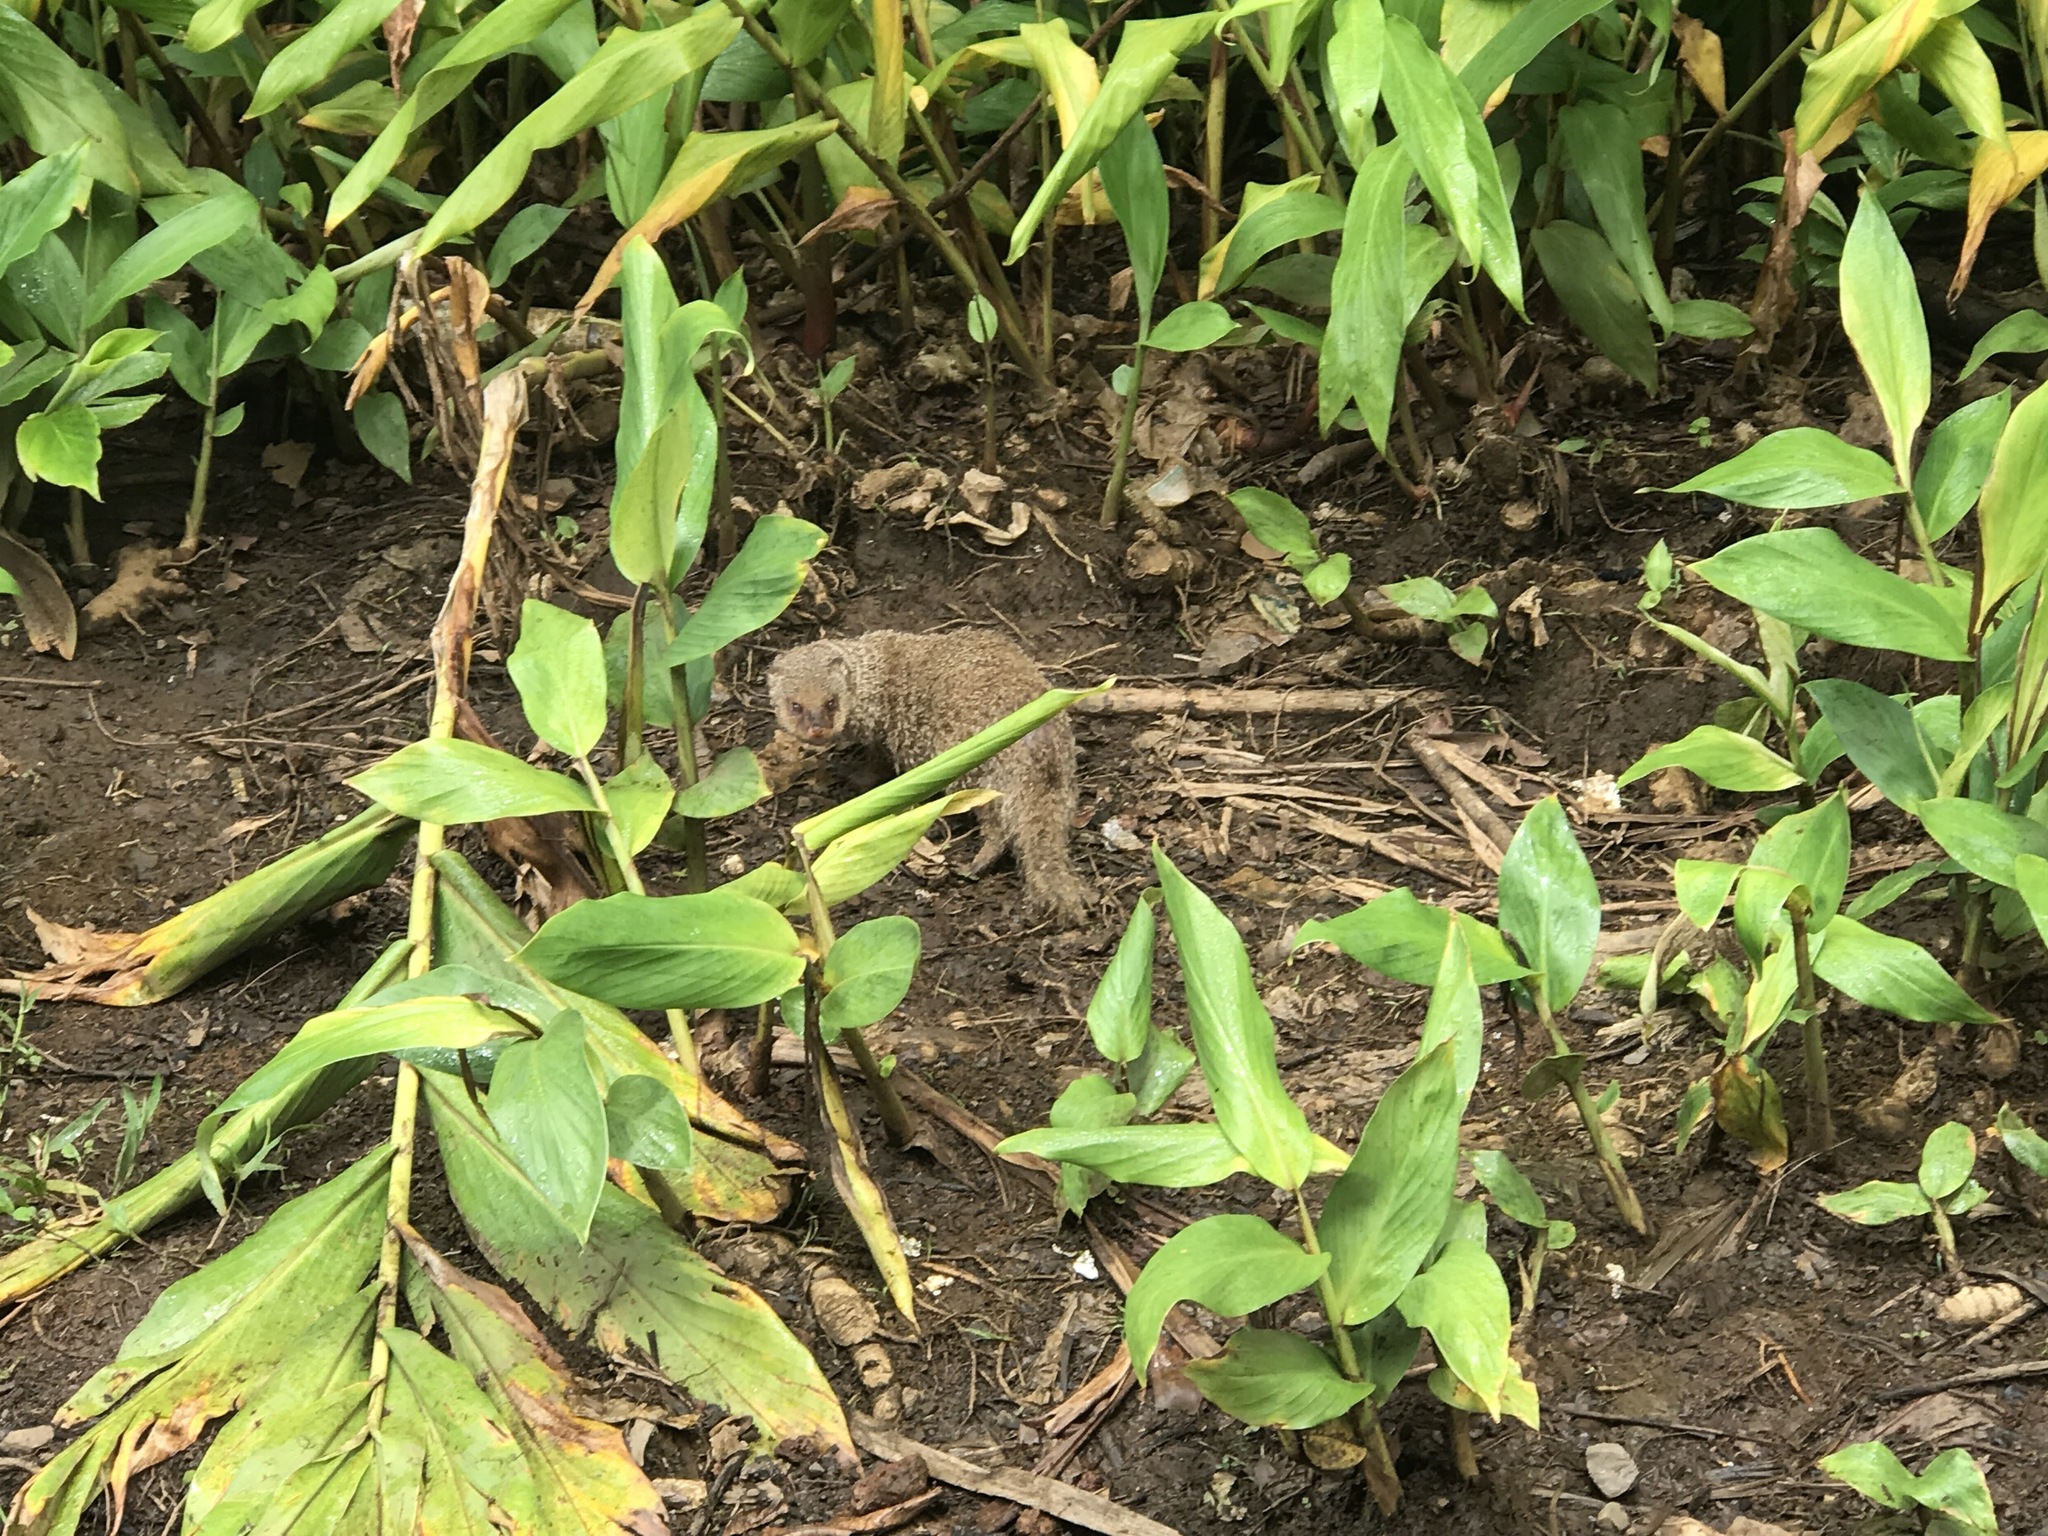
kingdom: Animalia
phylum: Chordata
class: Mammalia
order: Carnivora
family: Herpestidae
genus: Herpestes
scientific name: Herpestes javanicus
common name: Small asian mongoose
